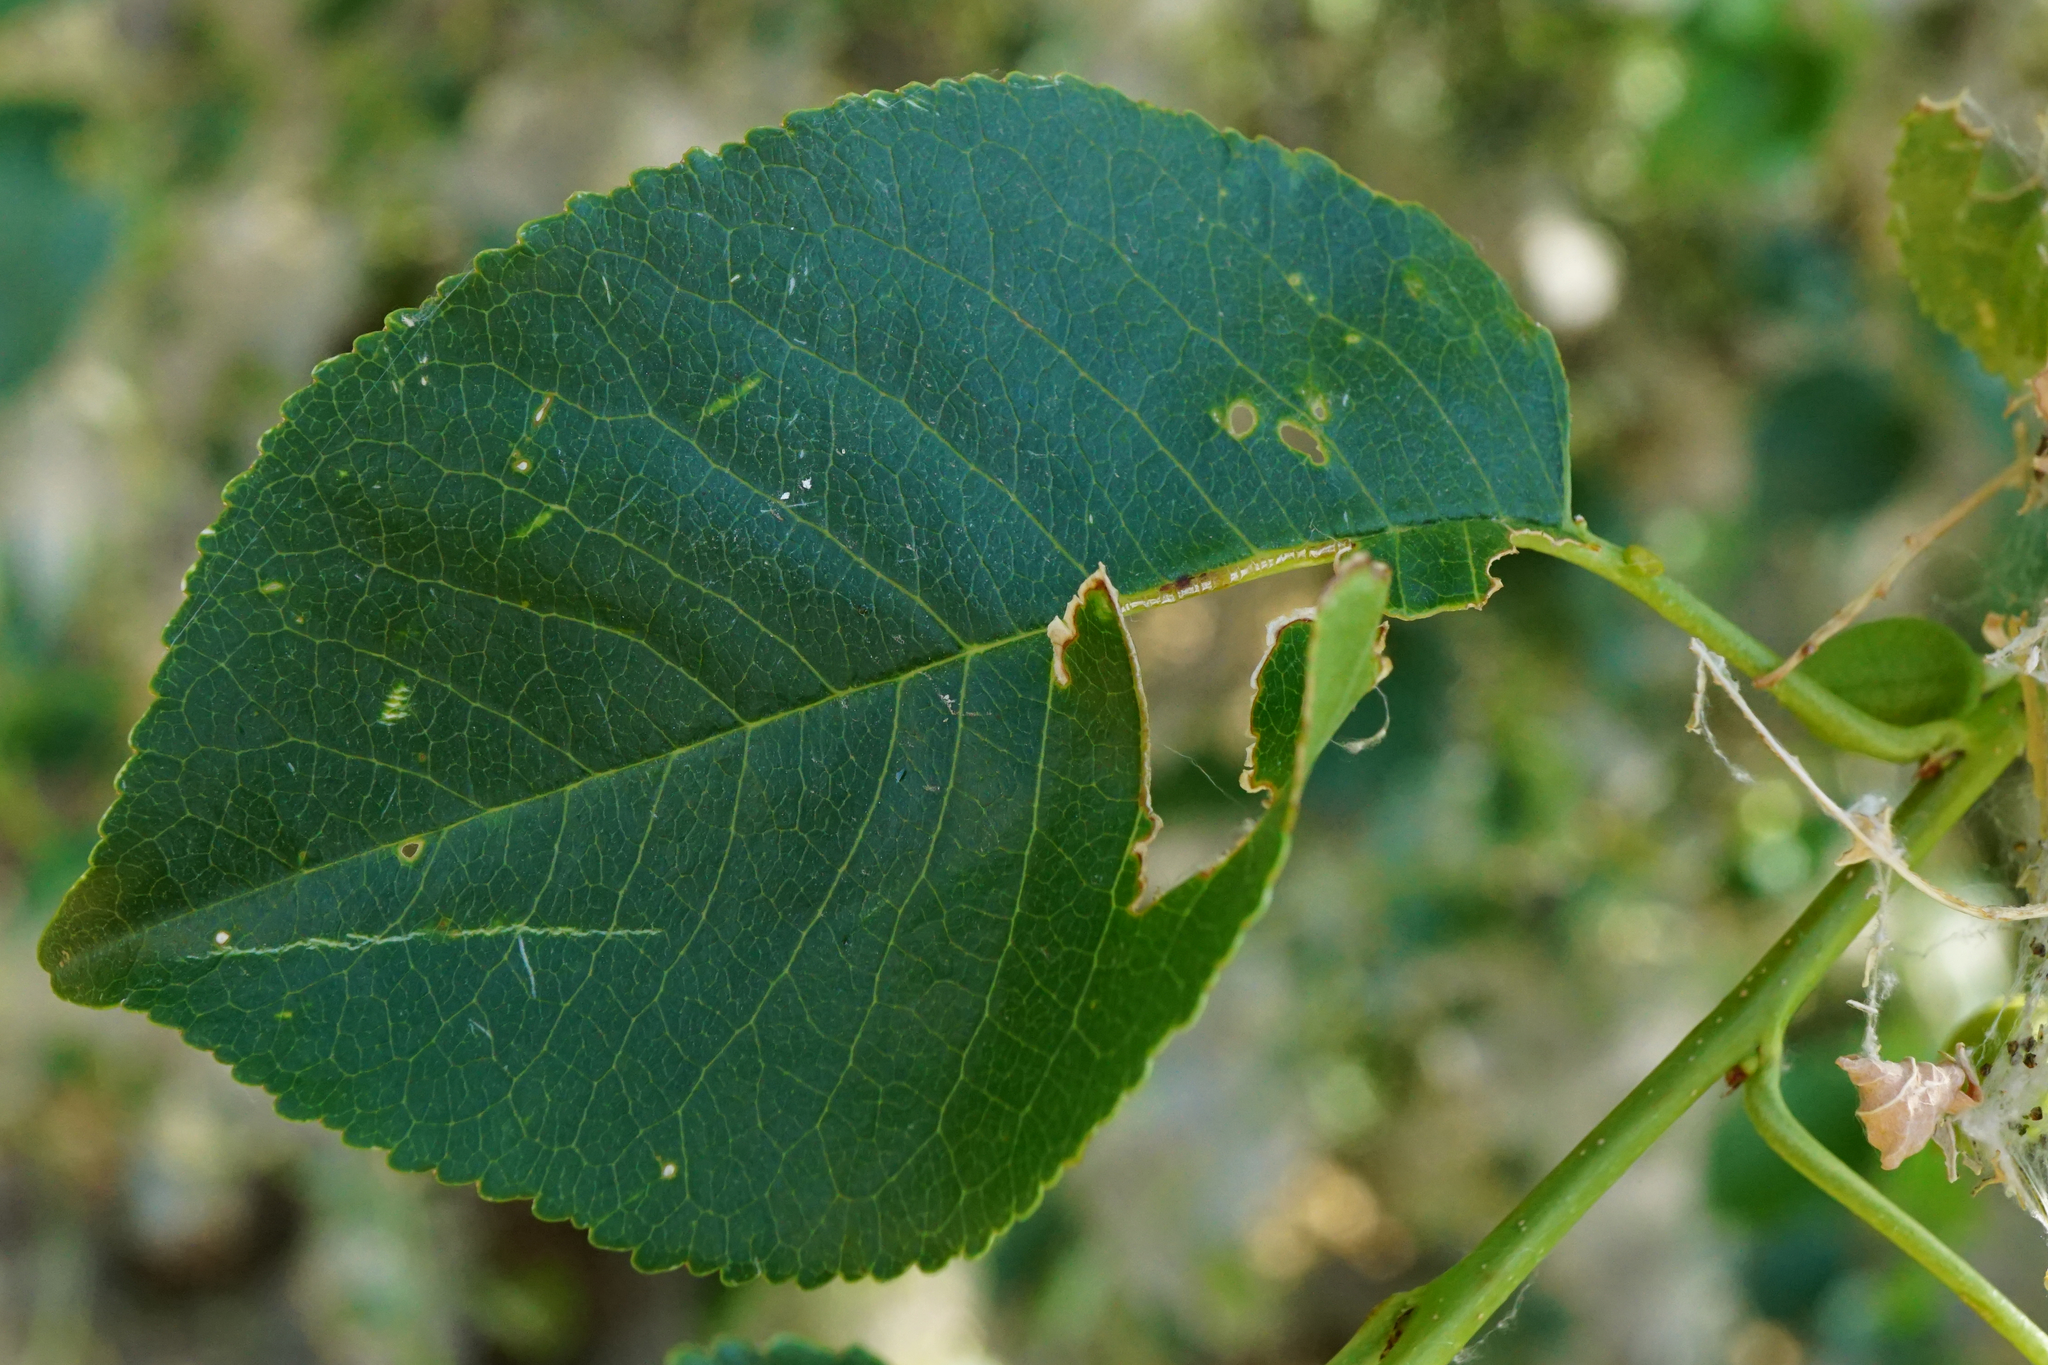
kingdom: Plantae
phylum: Tracheophyta
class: Magnoliopsida
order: Rosales
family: Rosaceae
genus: Prunus
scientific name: Prunus mahaleb
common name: Mahaleb cherry
